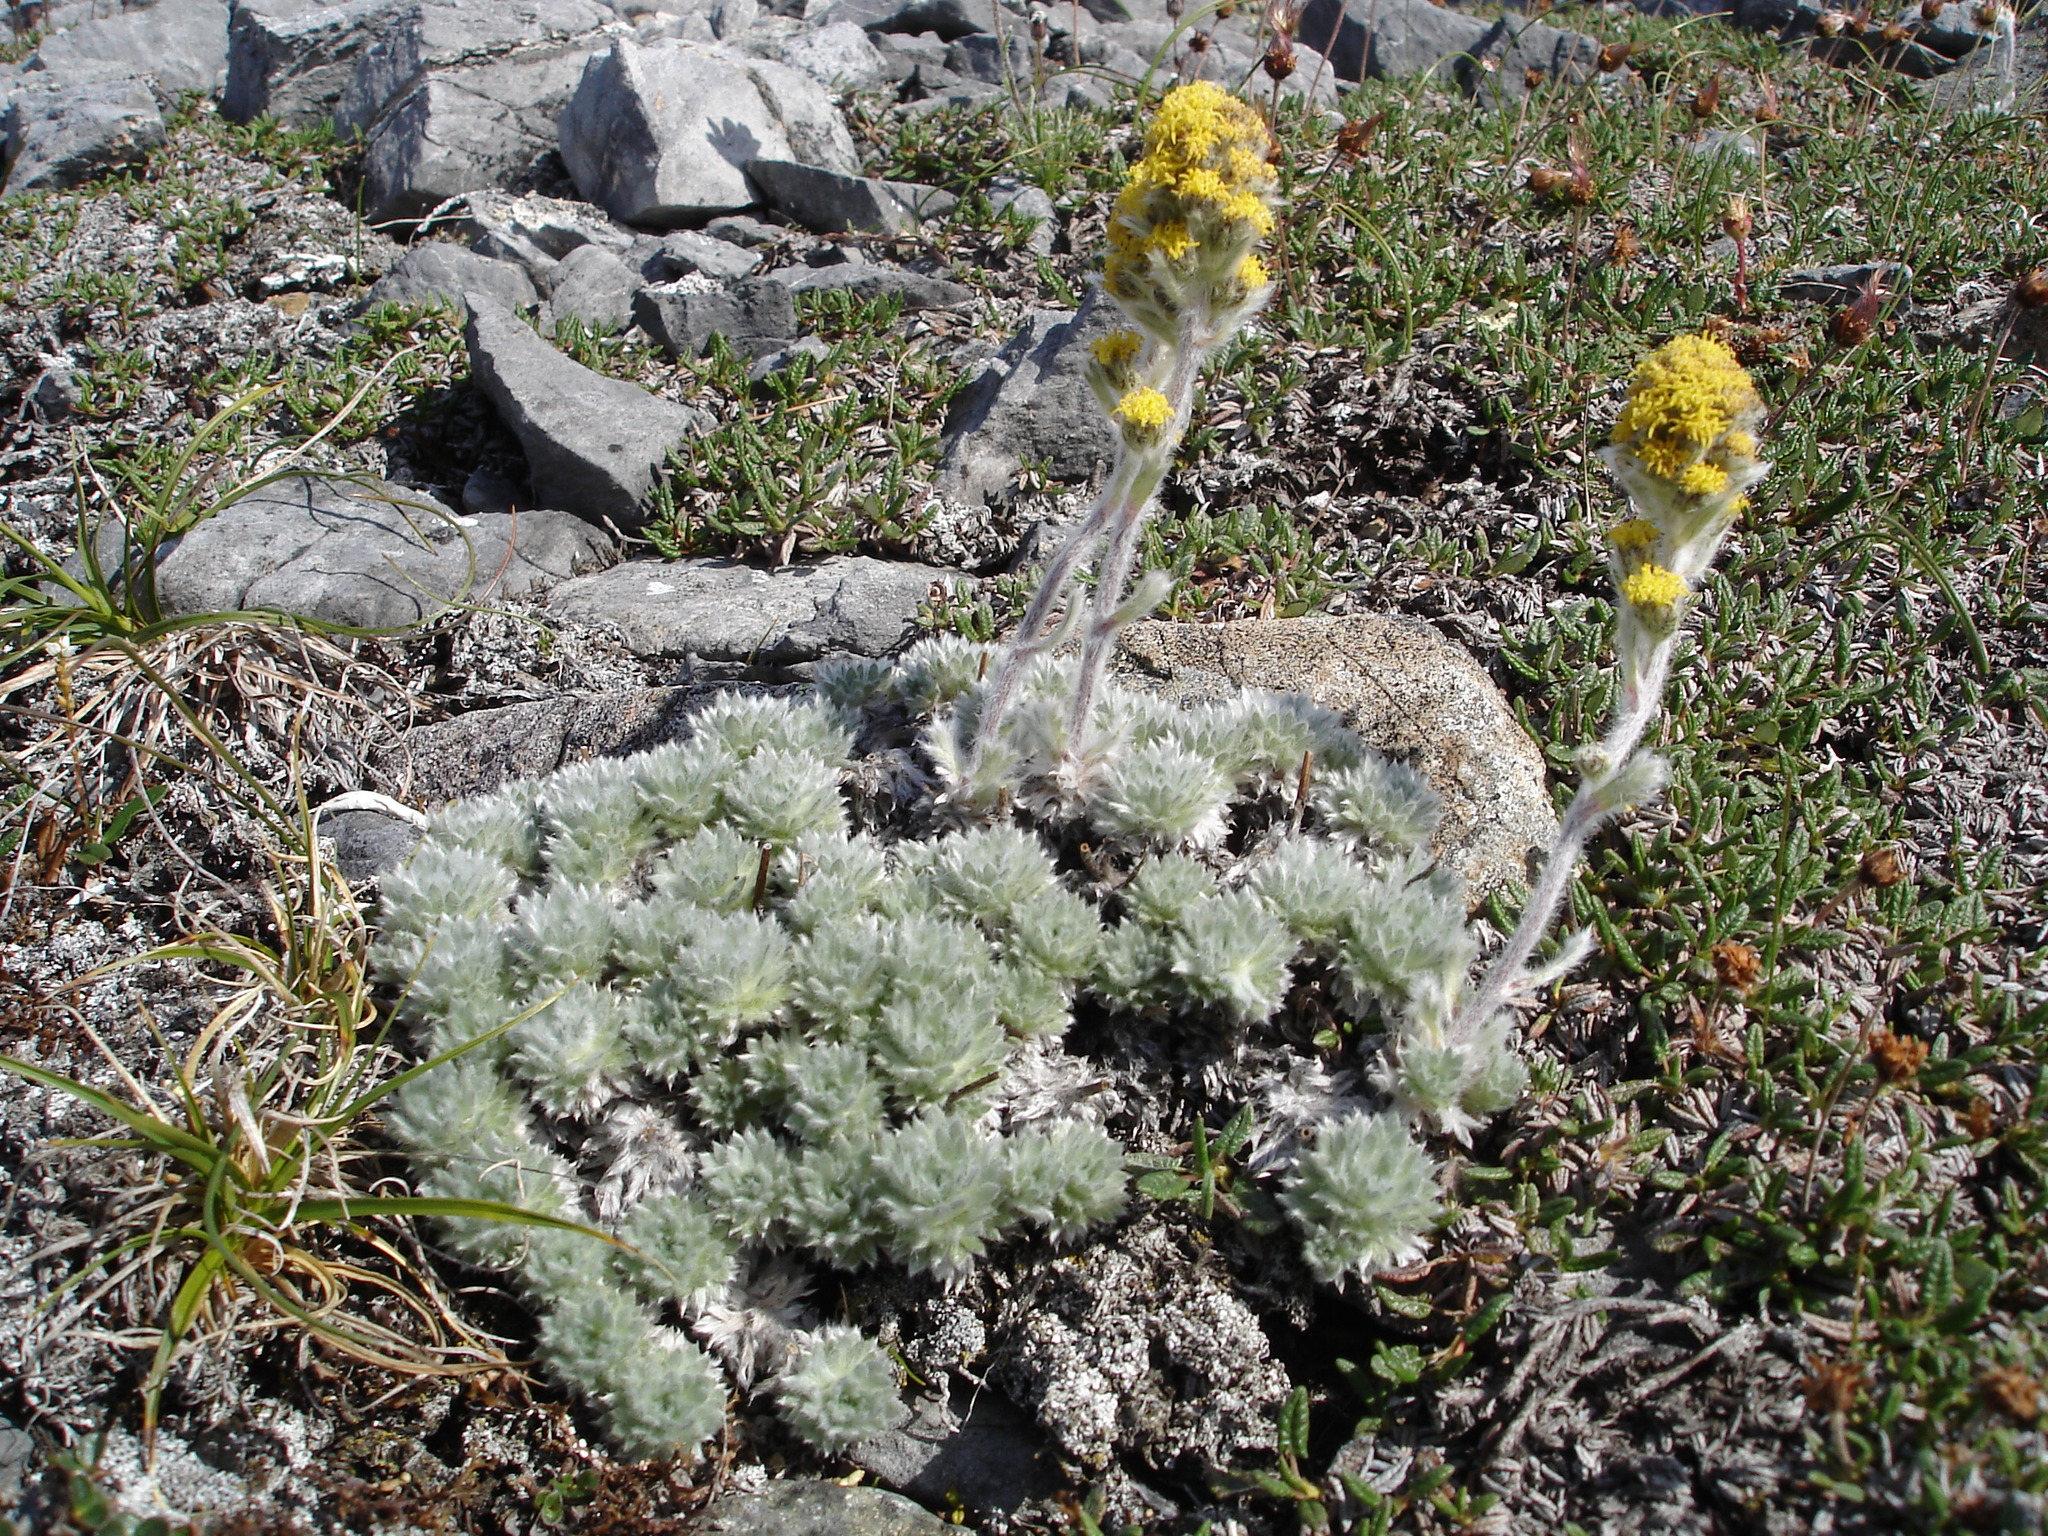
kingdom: Plantae
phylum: Tracheophyta
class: Magnoliopsida
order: Asterales
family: Asteraceae
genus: Artemisia
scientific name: Artemisia senjavinensis
